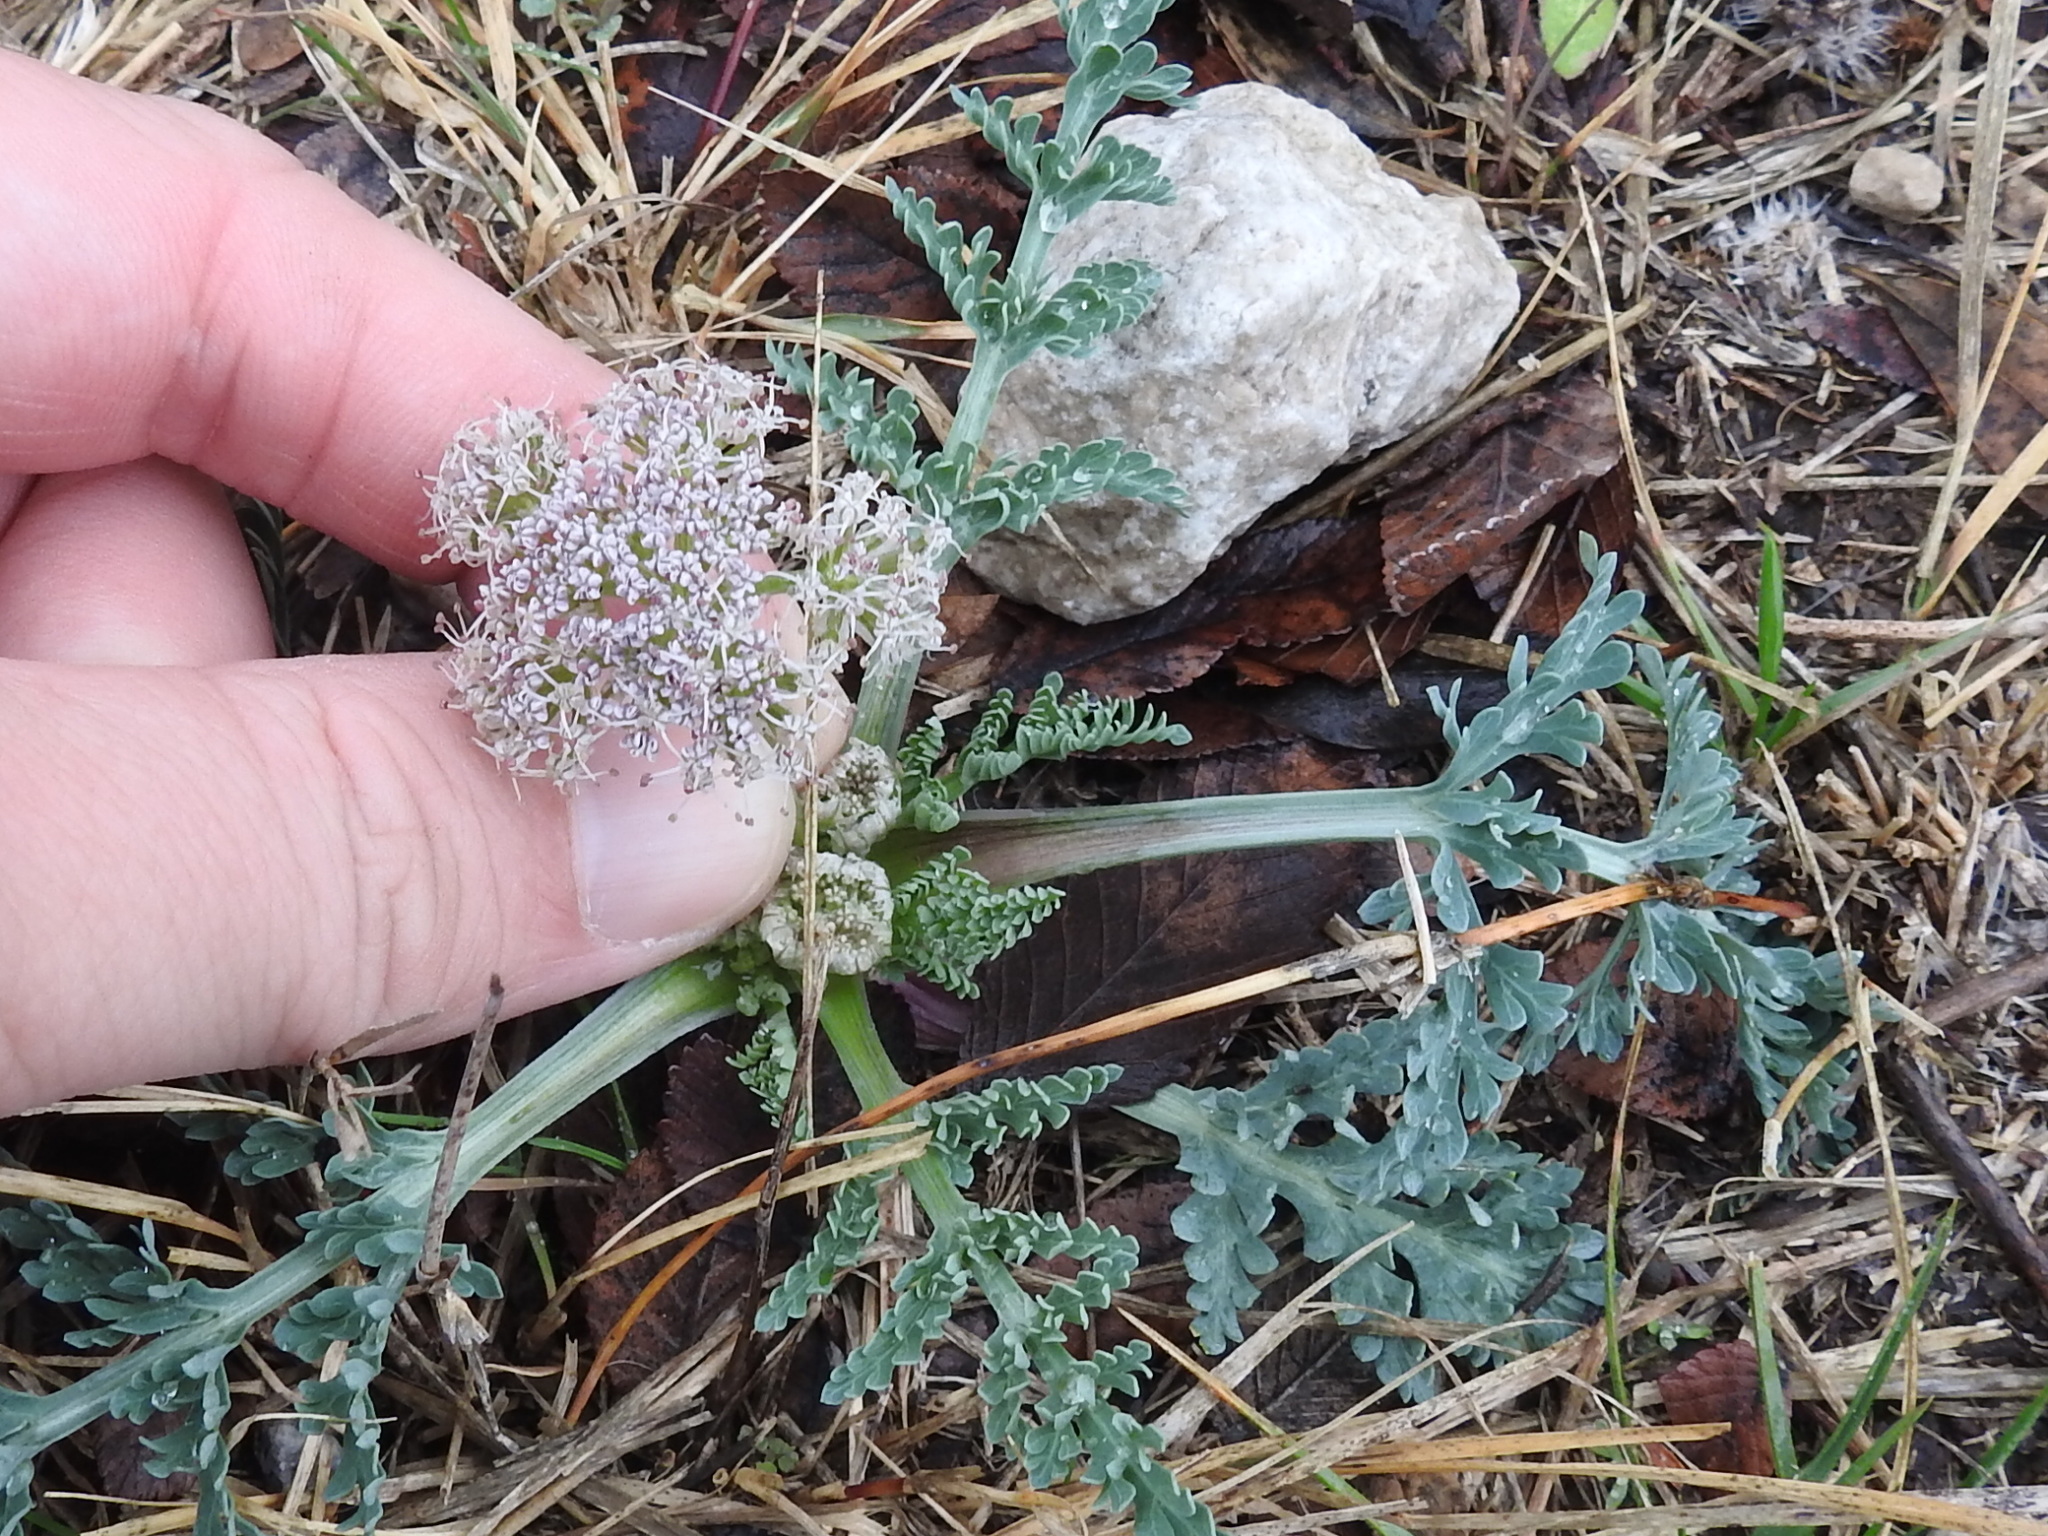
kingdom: Plantae
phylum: Tracheophyta
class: Magnoliopsida
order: Apiales
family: Apiaceae
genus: Vesper
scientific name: Vesper macrorhizus
